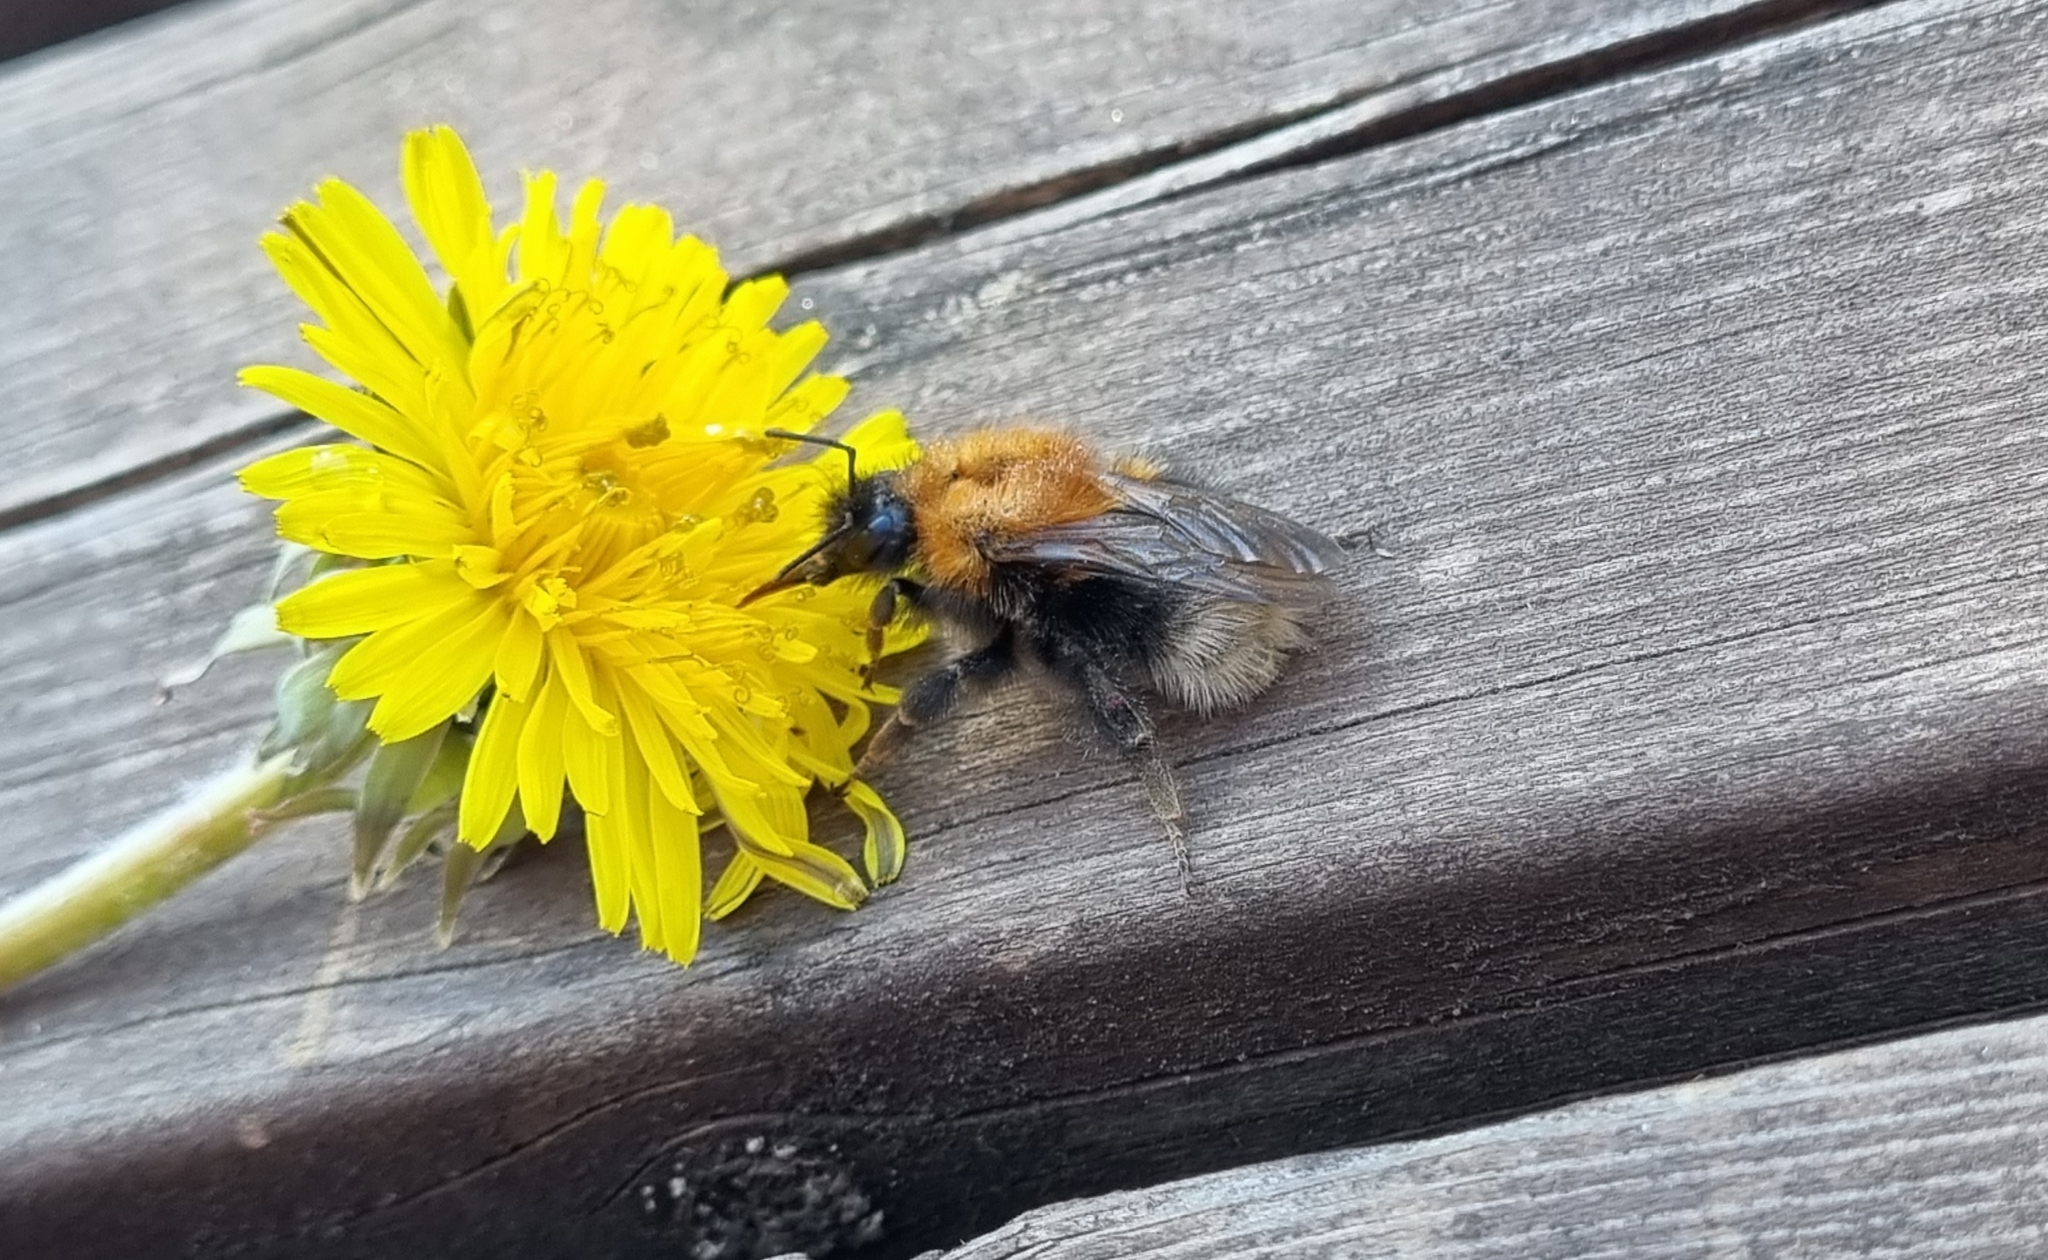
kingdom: Animalia
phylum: Arthropoda
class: Insecta
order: Hymenoptera
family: Apidae
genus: Bombus
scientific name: Bombus hypnorum
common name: New garden bumblebee
